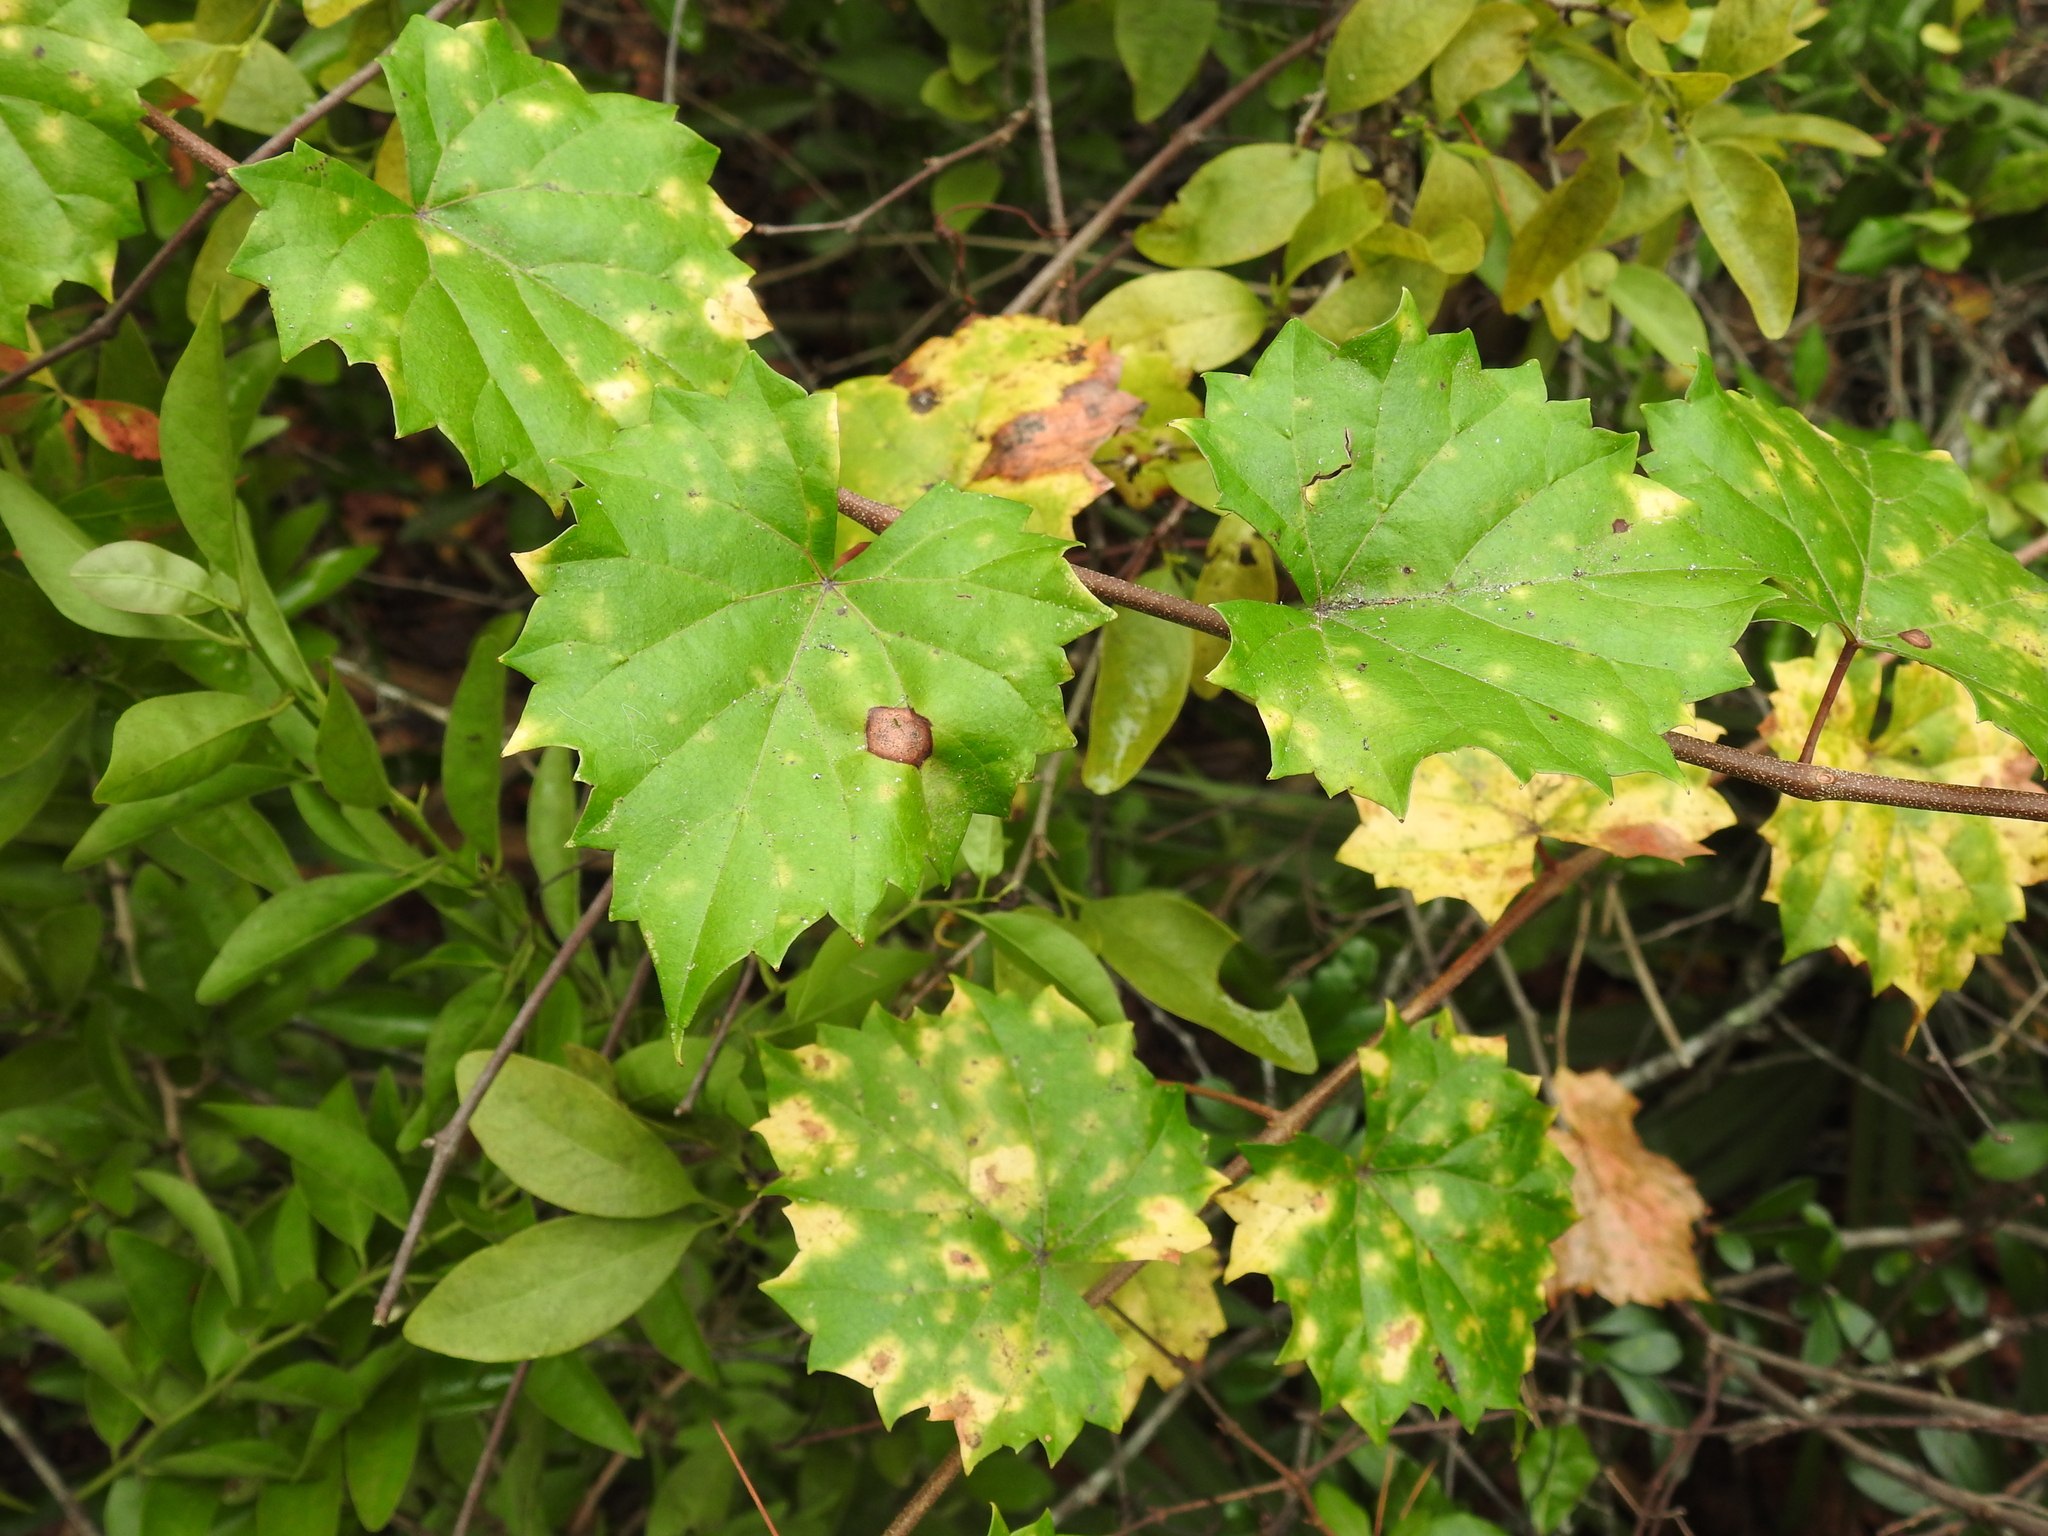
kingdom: Plantae
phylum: Tracheophyta
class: Magnoliopsida
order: Vitales
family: Vitaceae
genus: Vitis
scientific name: Vitis rotundifolia
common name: Muscadine grape
